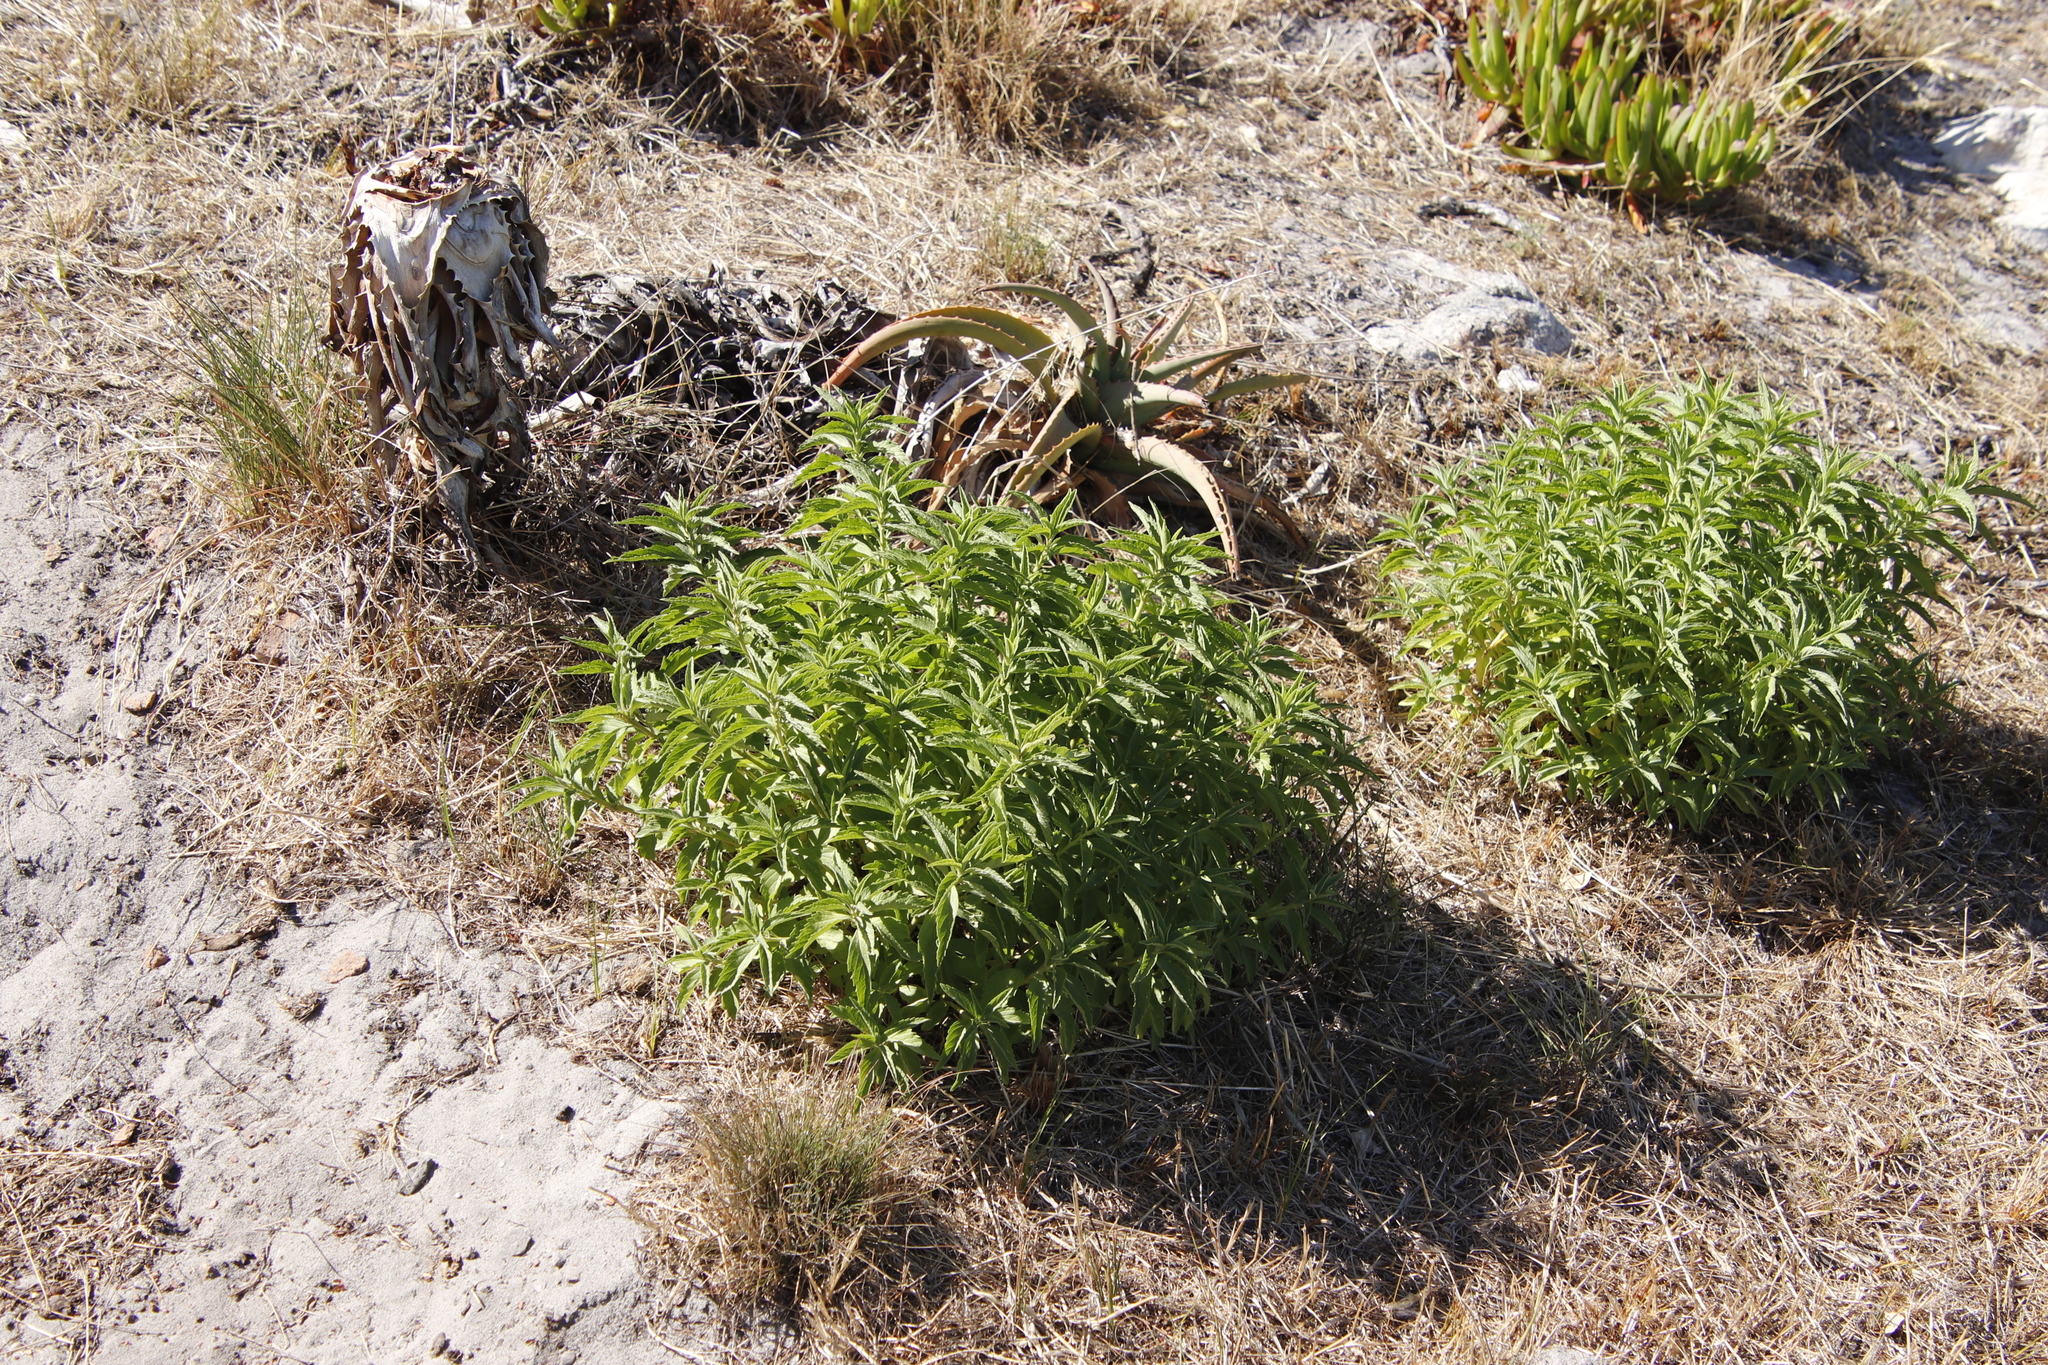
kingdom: Plantae
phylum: Tracheophyta
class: Magnoliopsida
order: Lamiales
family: Lamiaceae
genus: Leonotis
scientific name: Leonotis leonurus
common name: Lion's ear
